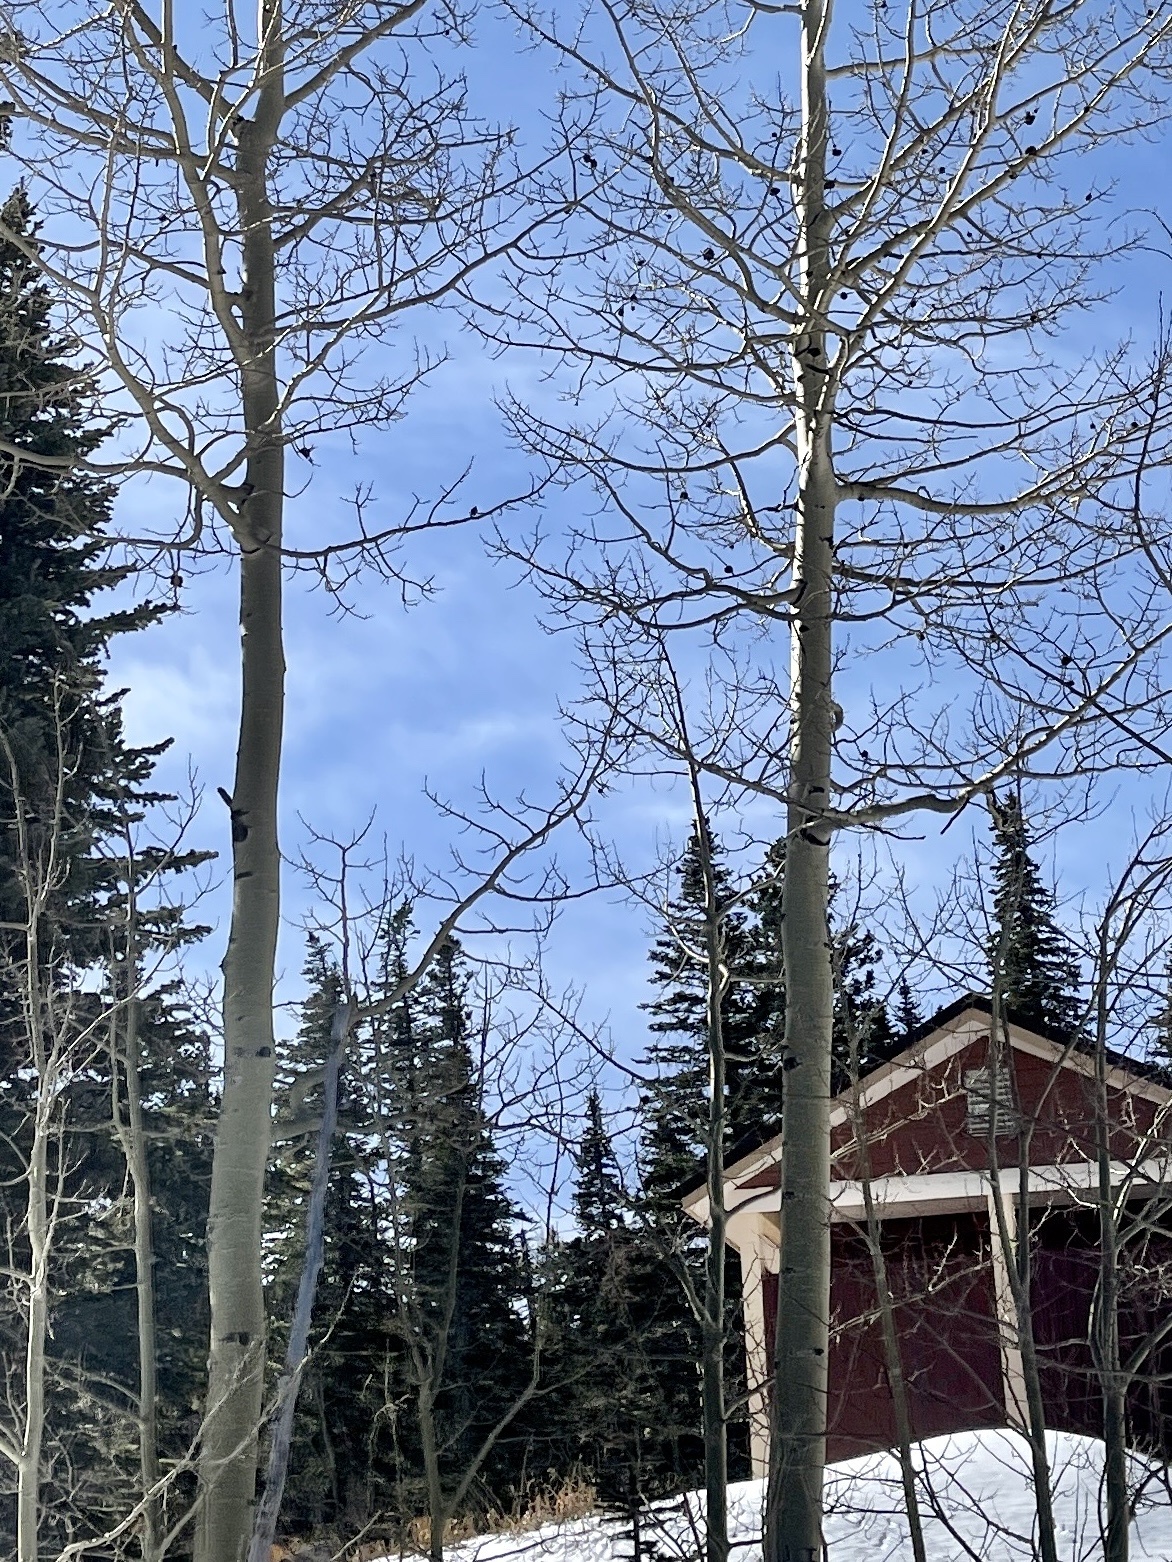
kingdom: Plantae
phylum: Tracheophyta
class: Magnoliopsida
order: Malpighiales
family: Salicaceae
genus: Populus
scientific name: Populus tremuloides
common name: Quaking aspen
